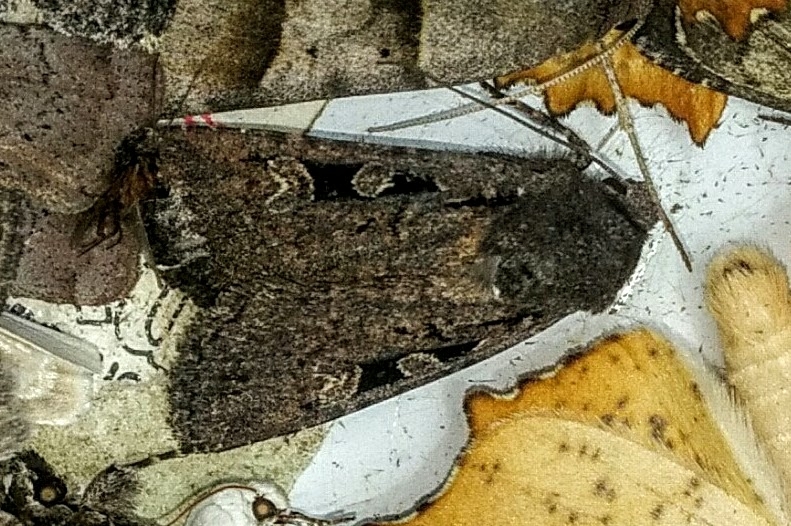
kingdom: Animalia
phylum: Arthropoda
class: Insecta
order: Lepidoptera
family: Noctuidae
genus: Euxoa
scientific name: Euxoa tessellata
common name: Striped cutworm
